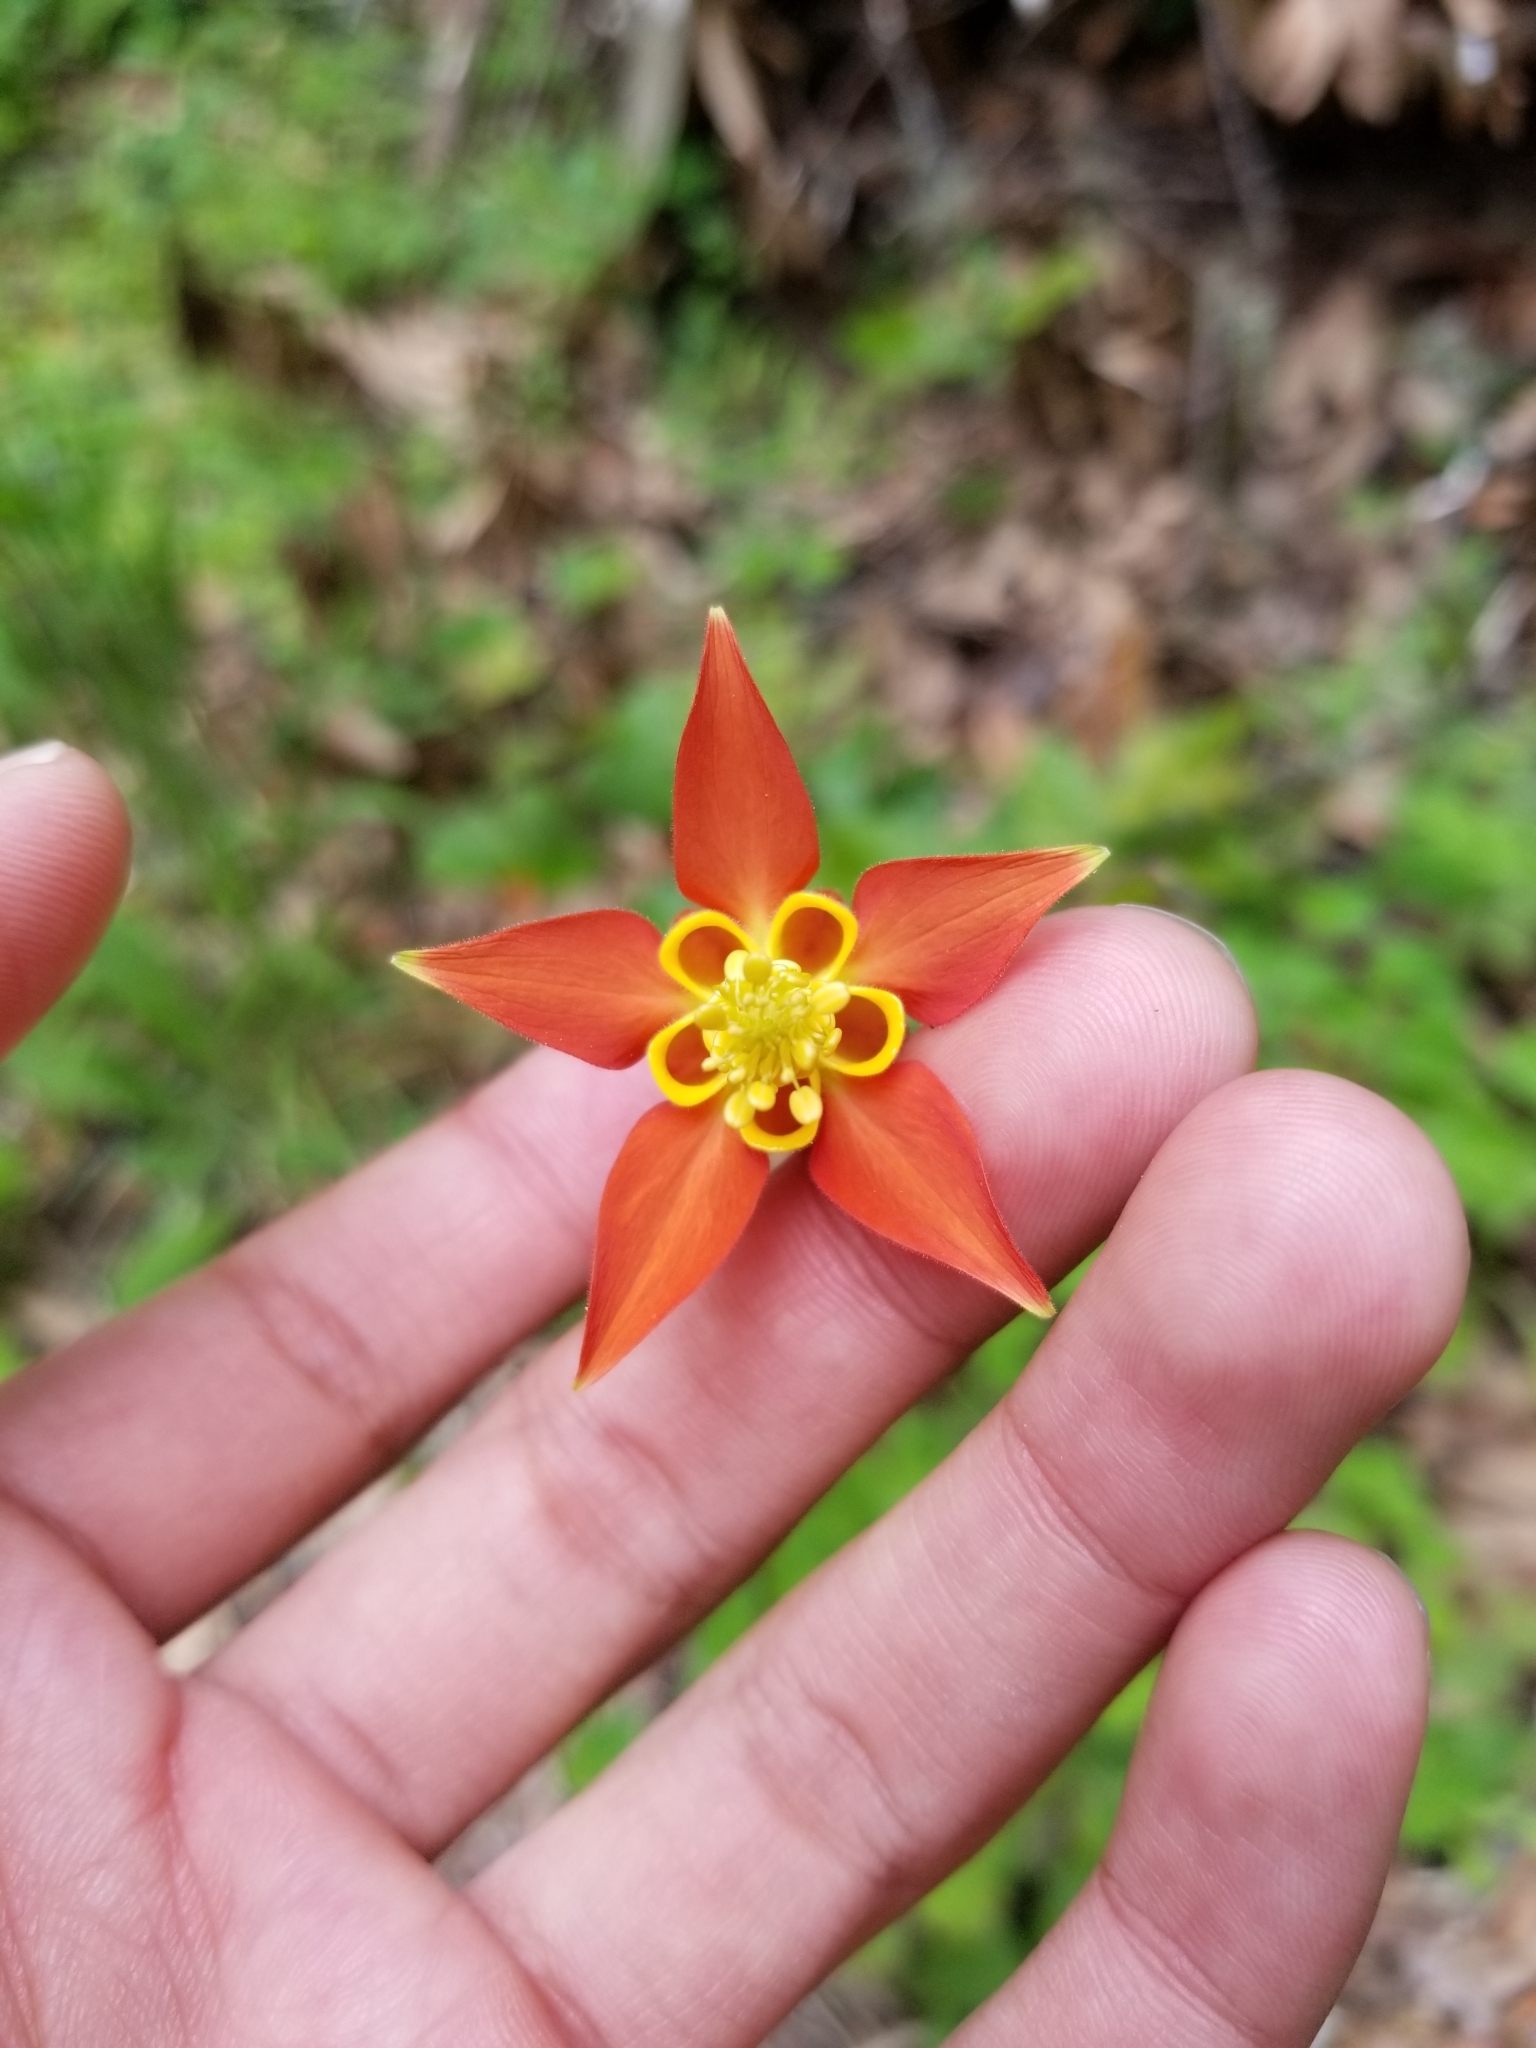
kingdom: Plantae
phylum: Tracheophyta
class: Magnoliopsida
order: Ranunculales
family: Ranunculaceae
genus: Aquilegia
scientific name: Aquilegia formosa
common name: Sitka columbine
